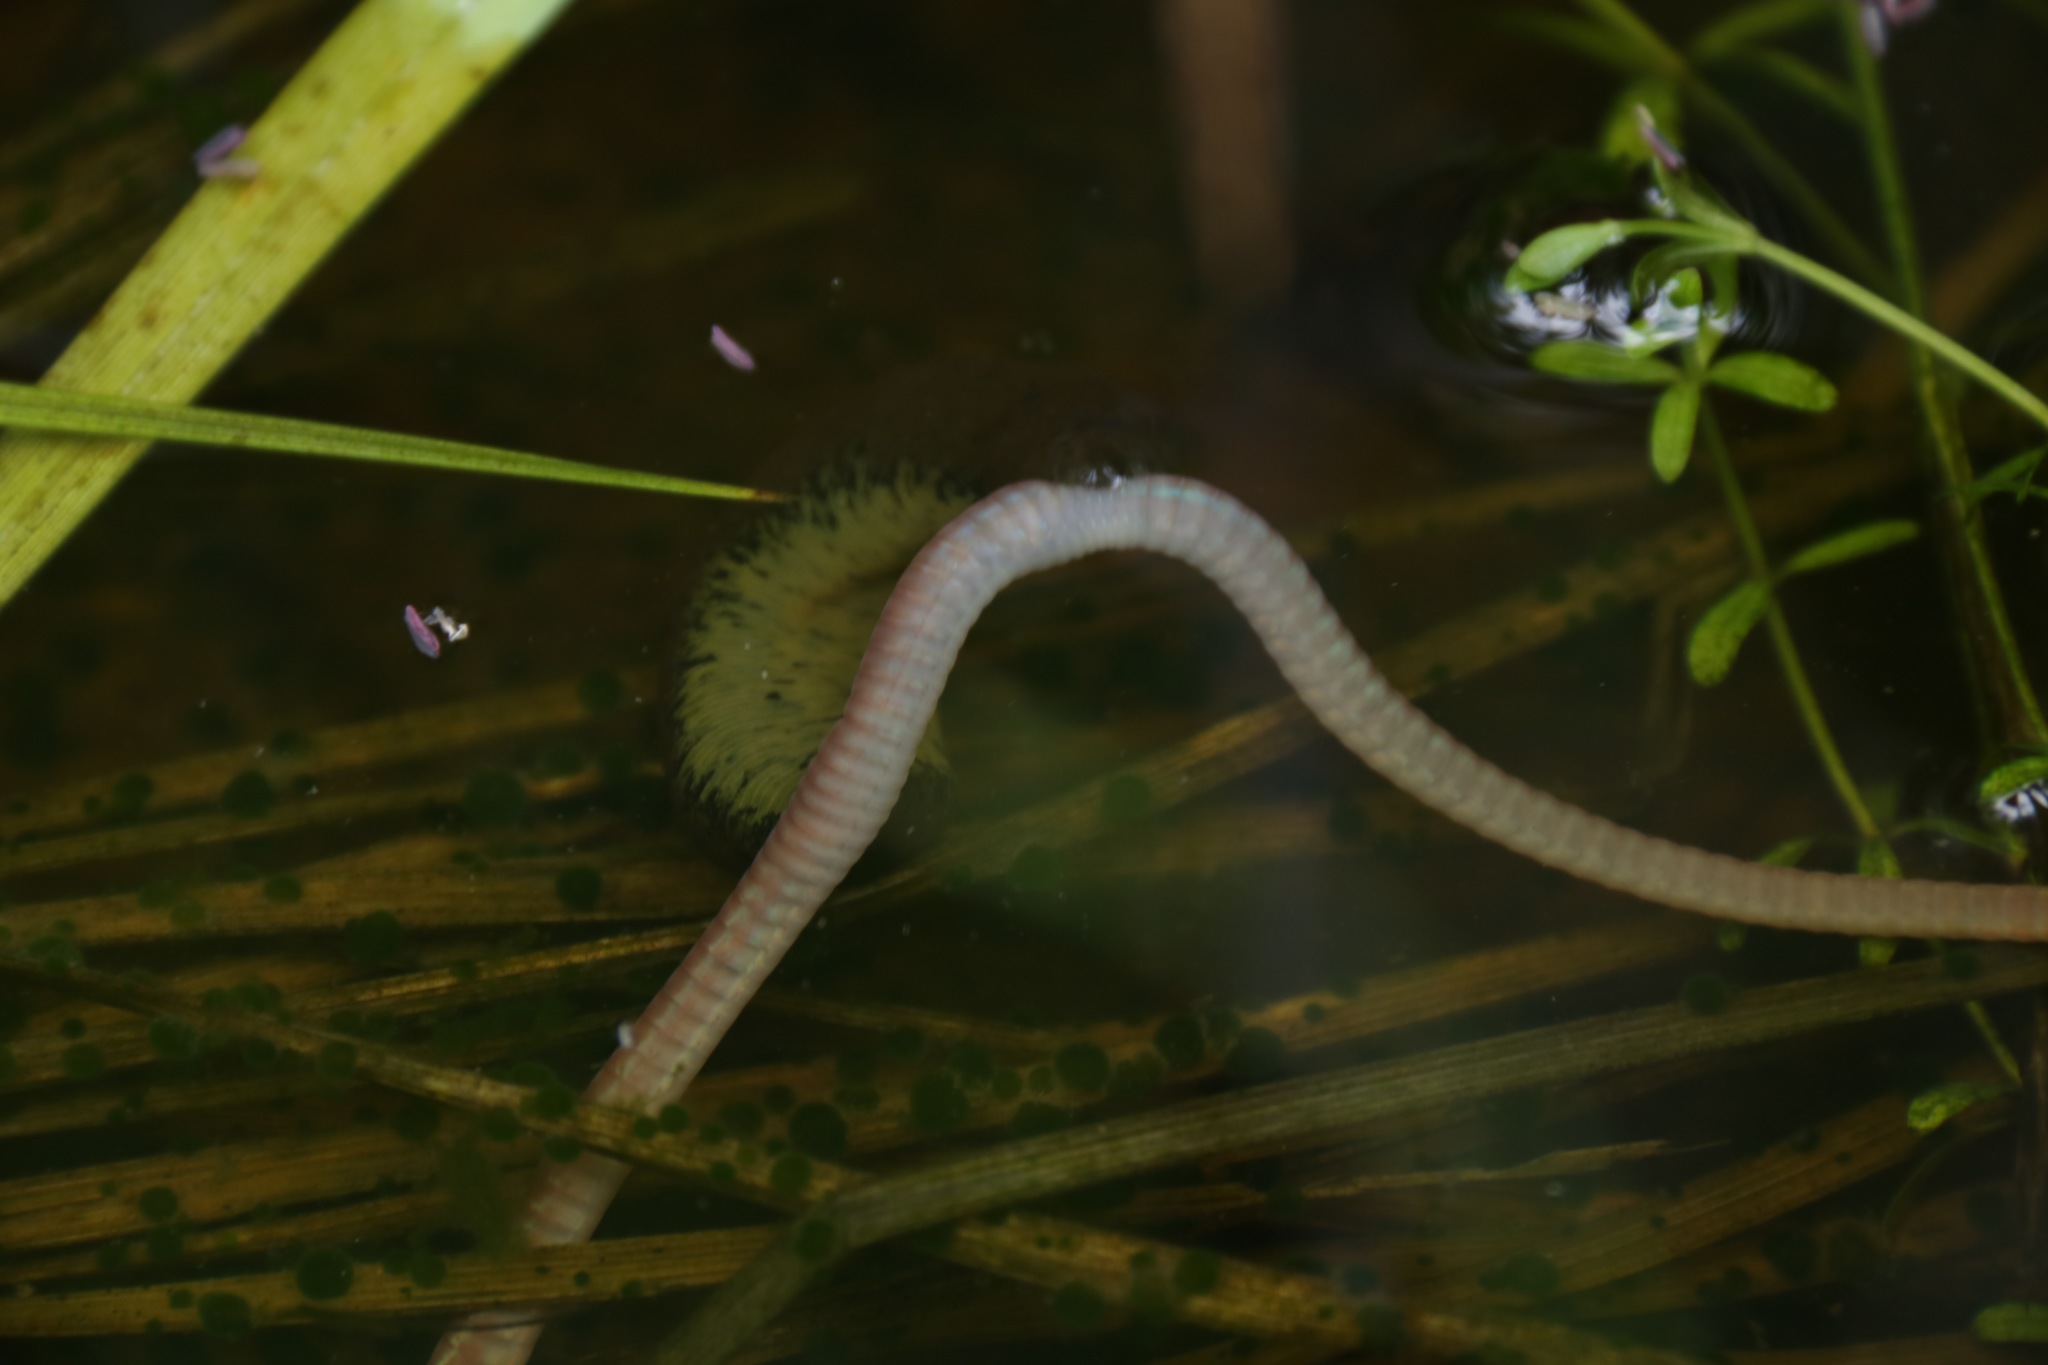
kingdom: Animalia
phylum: Annelida
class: Clitellata
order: Arhynchobdellida
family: Haemopidae
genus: Haemopis
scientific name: Haemopis sanguisuga
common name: Horse leech
